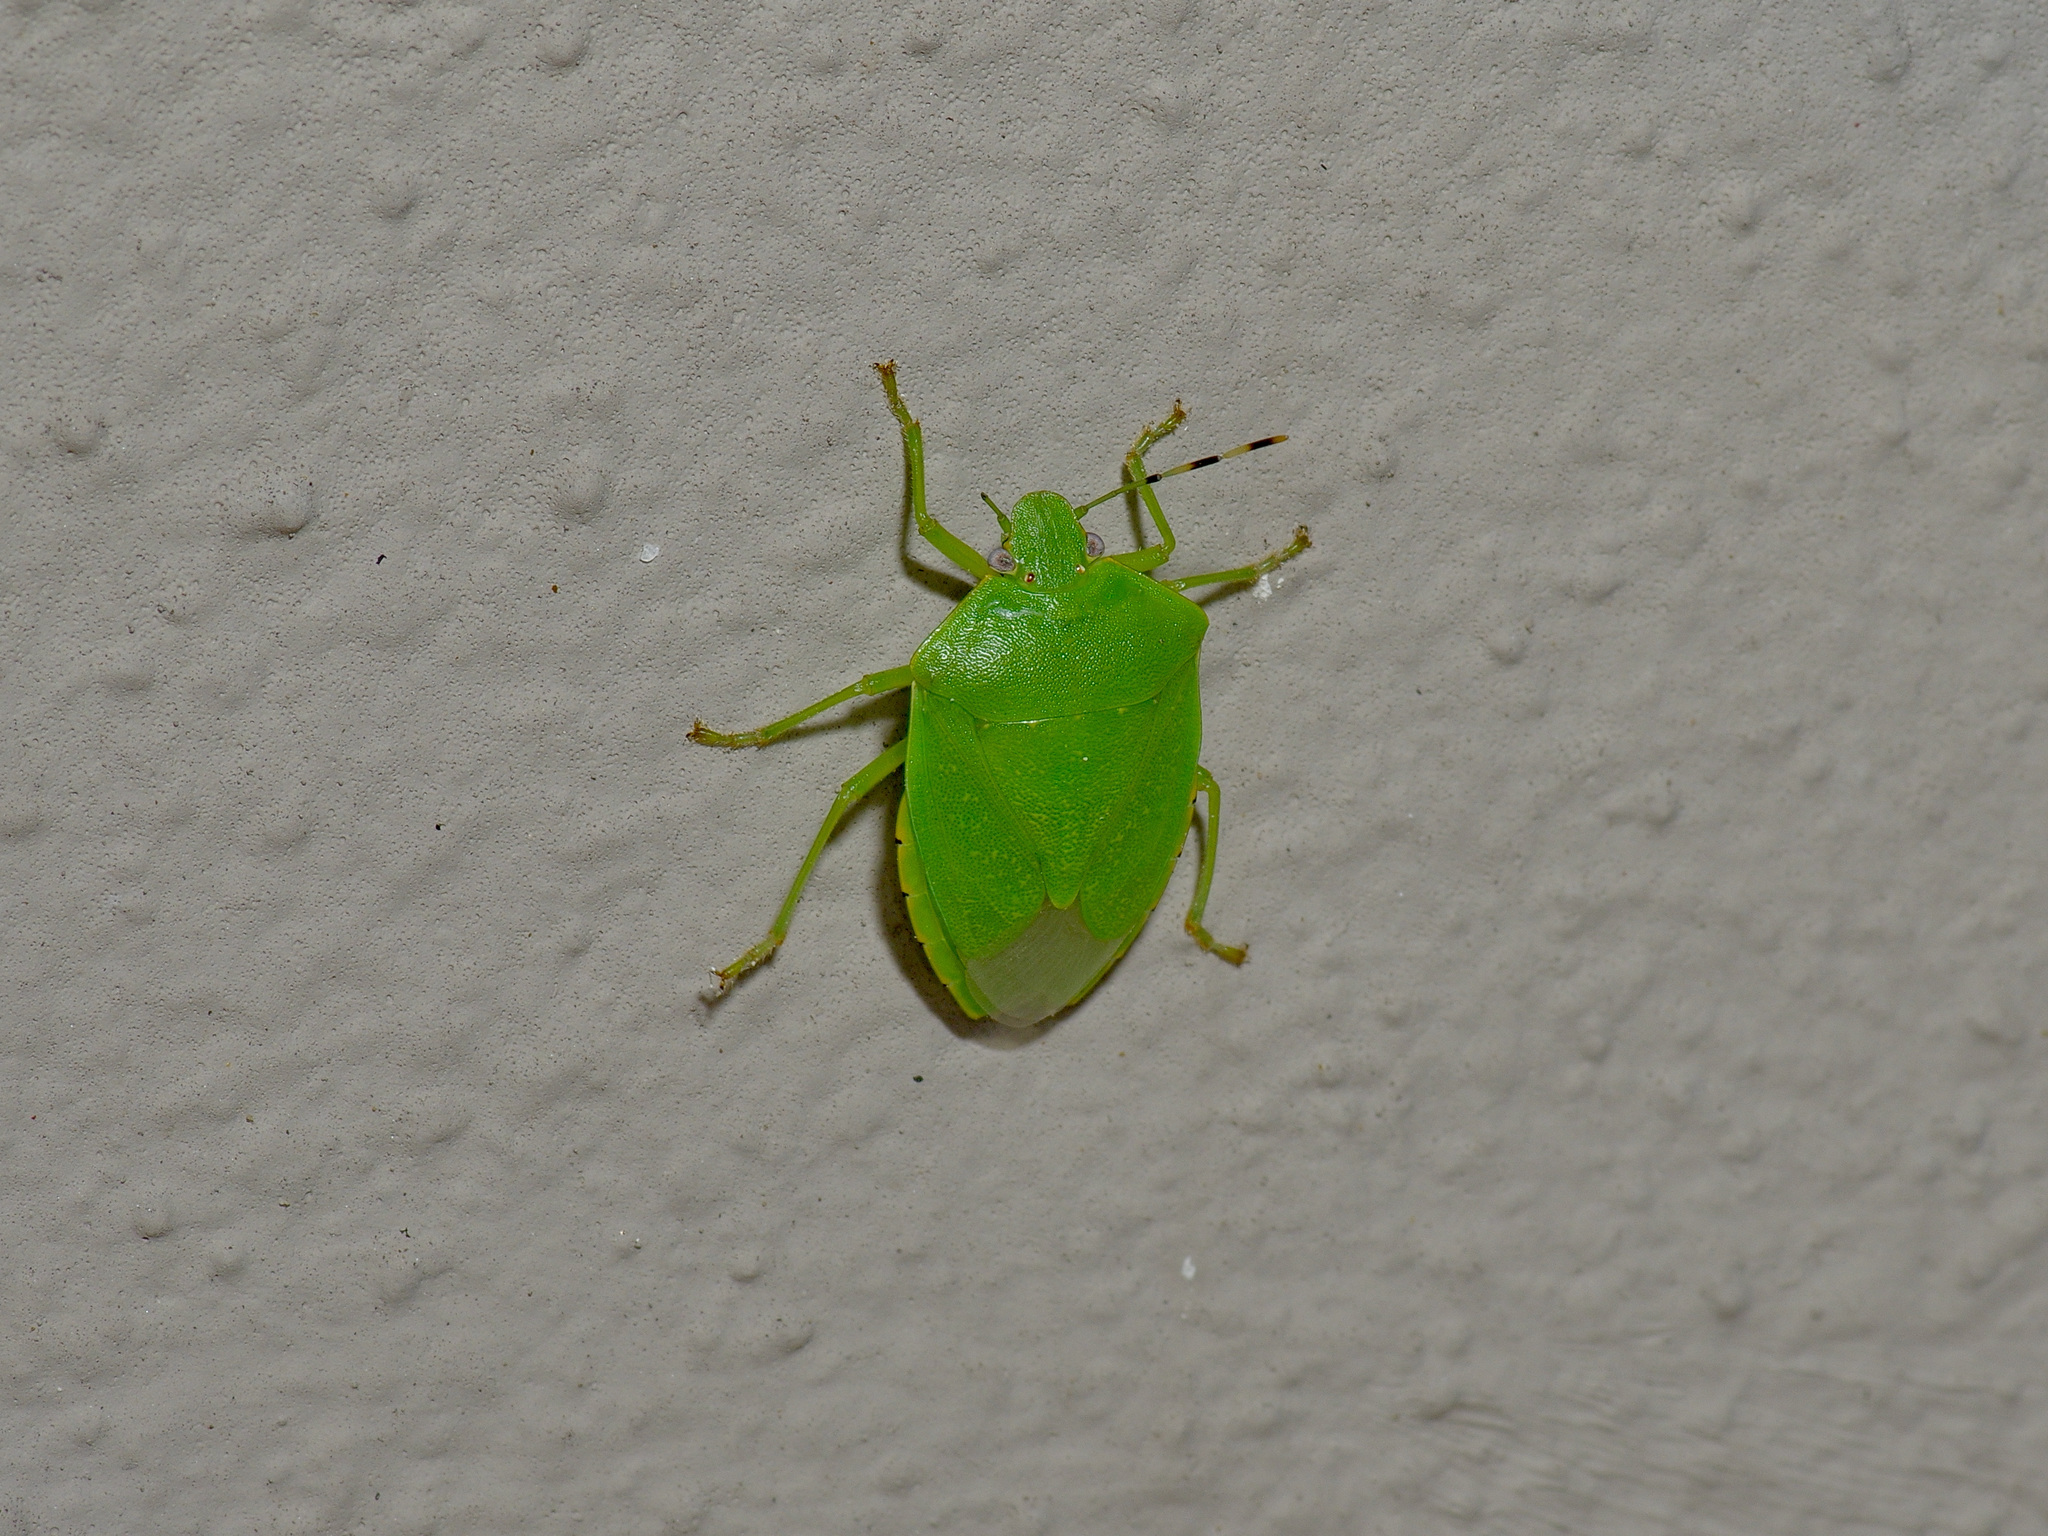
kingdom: Animalia
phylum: Arthropoda
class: Insecta
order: Hemiptera
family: Pentatomidae
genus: Chinavia
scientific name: Chinavia hilaris
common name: Green stink bug
